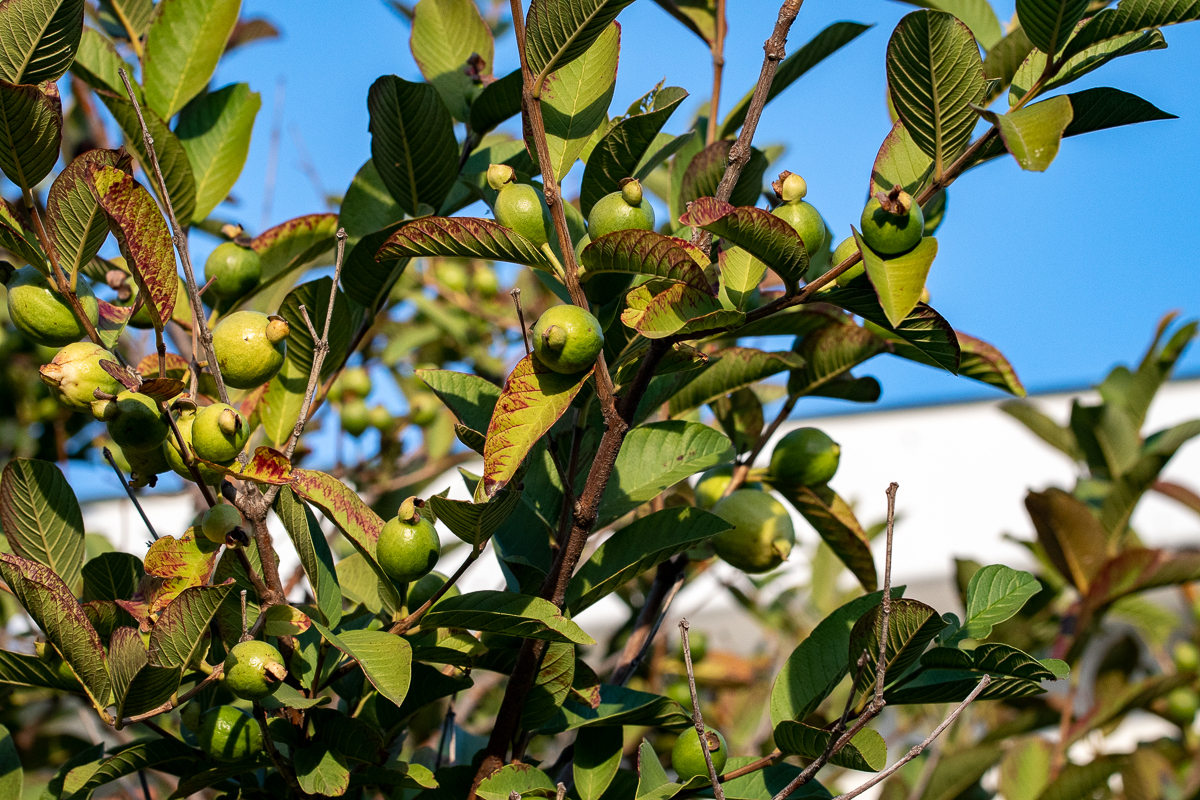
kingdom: Plantae
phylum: Tracheophyta
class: Magnoliopsida
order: Myrtales
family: Myrtaceae
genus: Psidium
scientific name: Psidium guajava
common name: Guava
